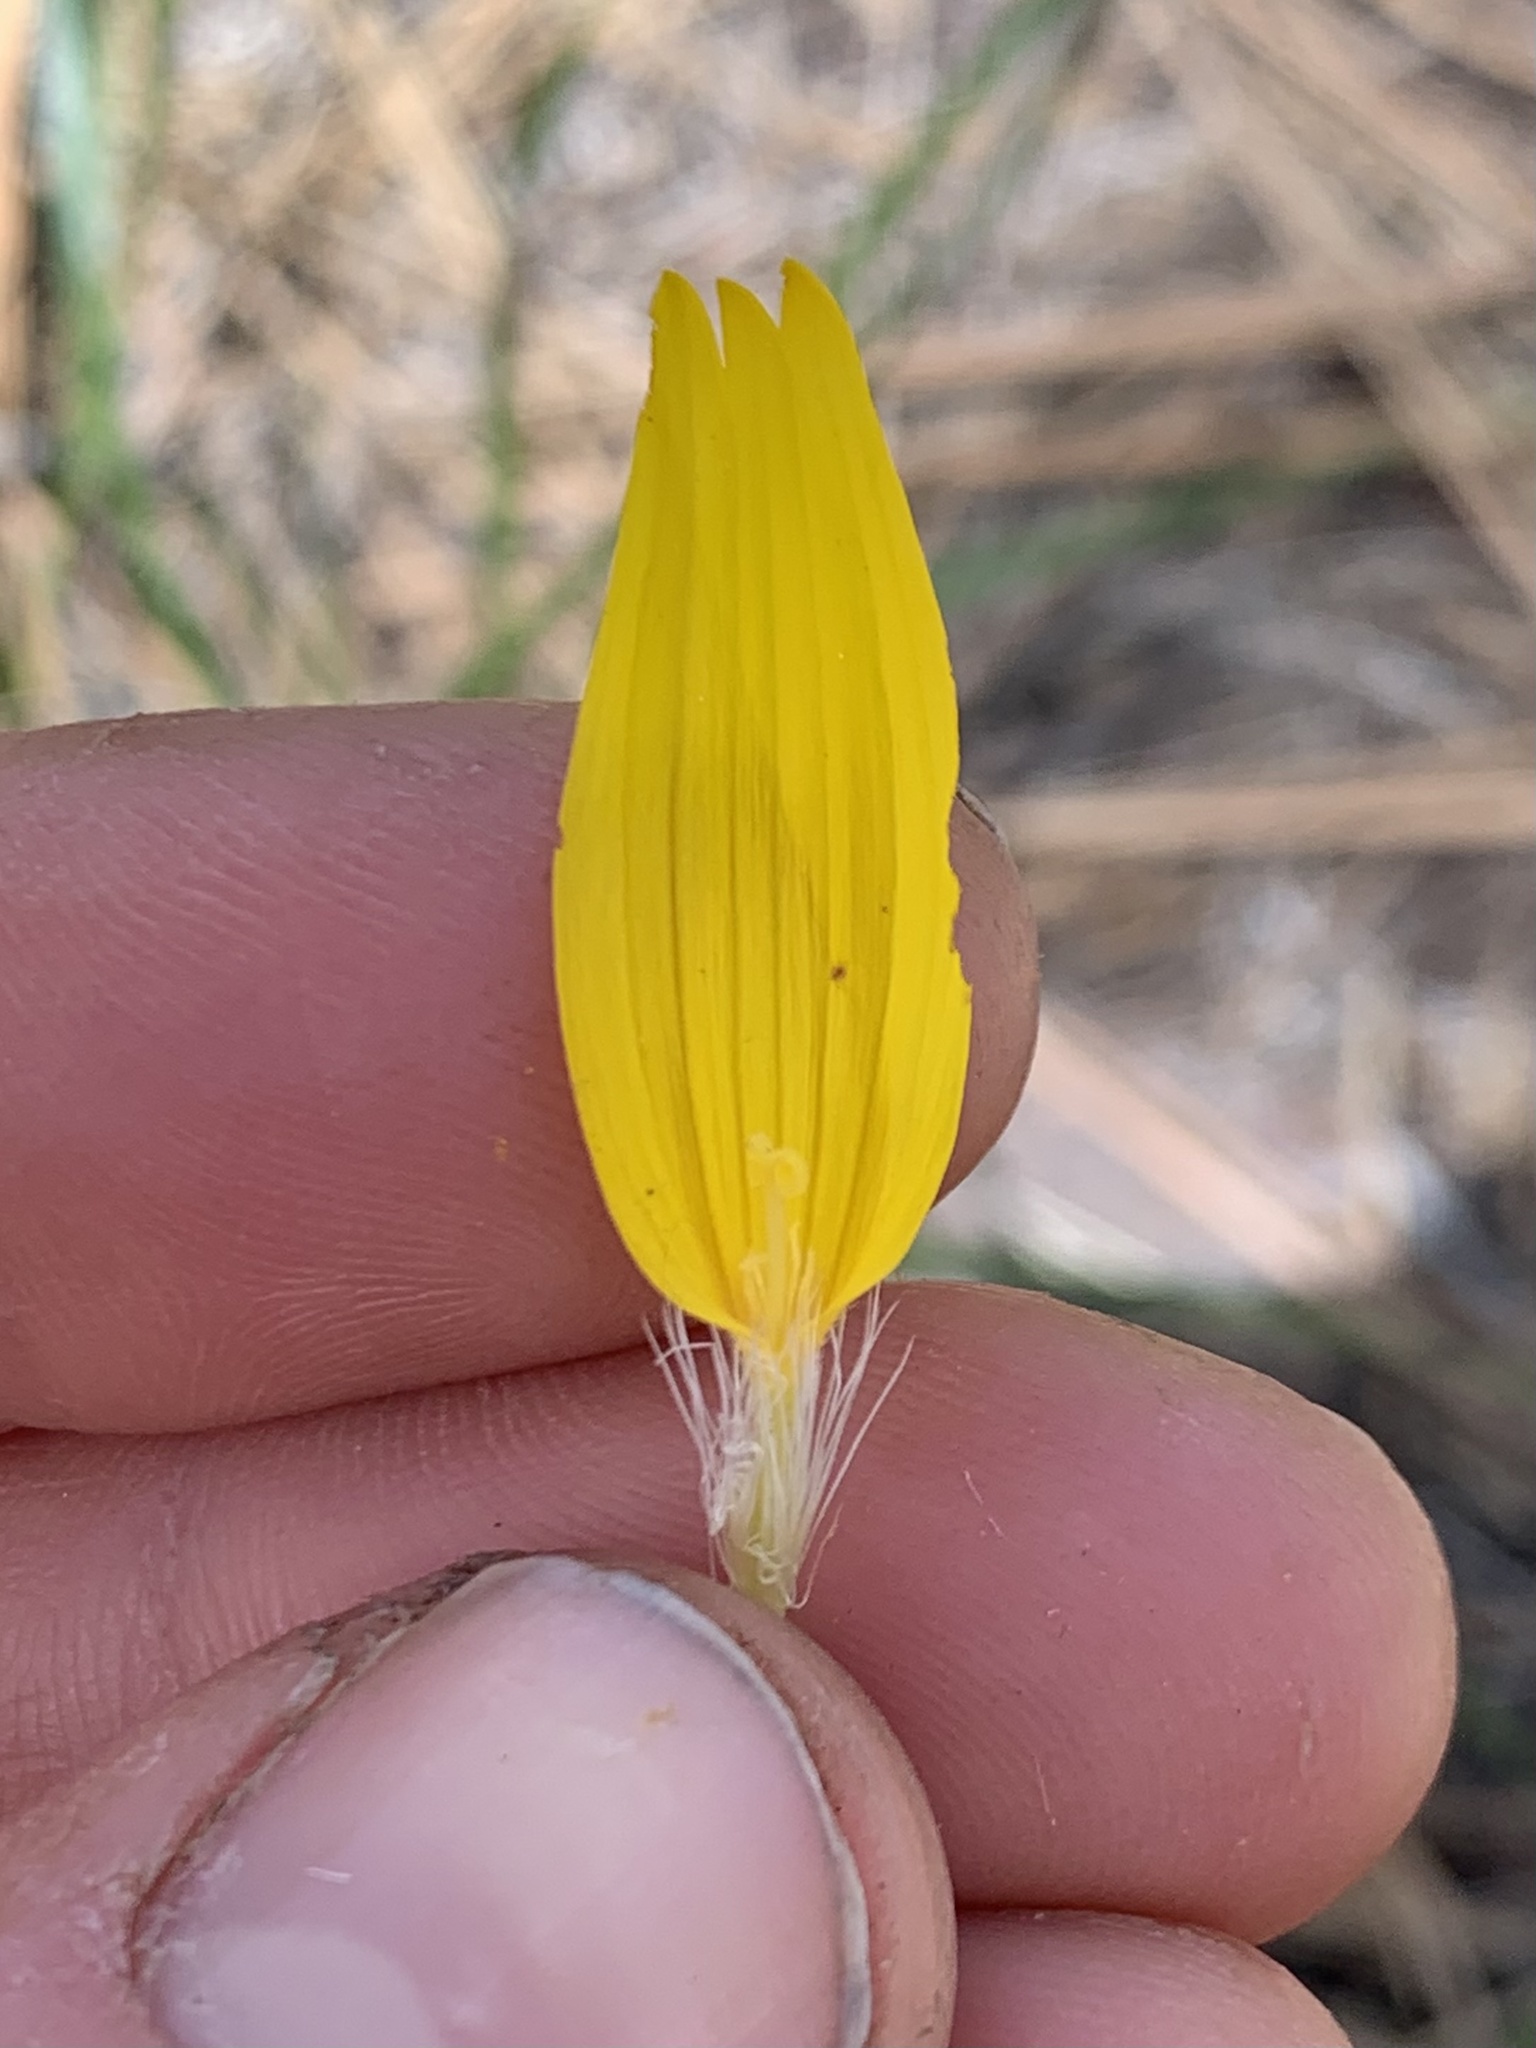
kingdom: Plantae
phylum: Tracheophyta
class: Magnoliopsida
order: Asterales
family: Asteraceae
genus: Arnica
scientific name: Arnica cordifolia
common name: Heart-leaf arnica
